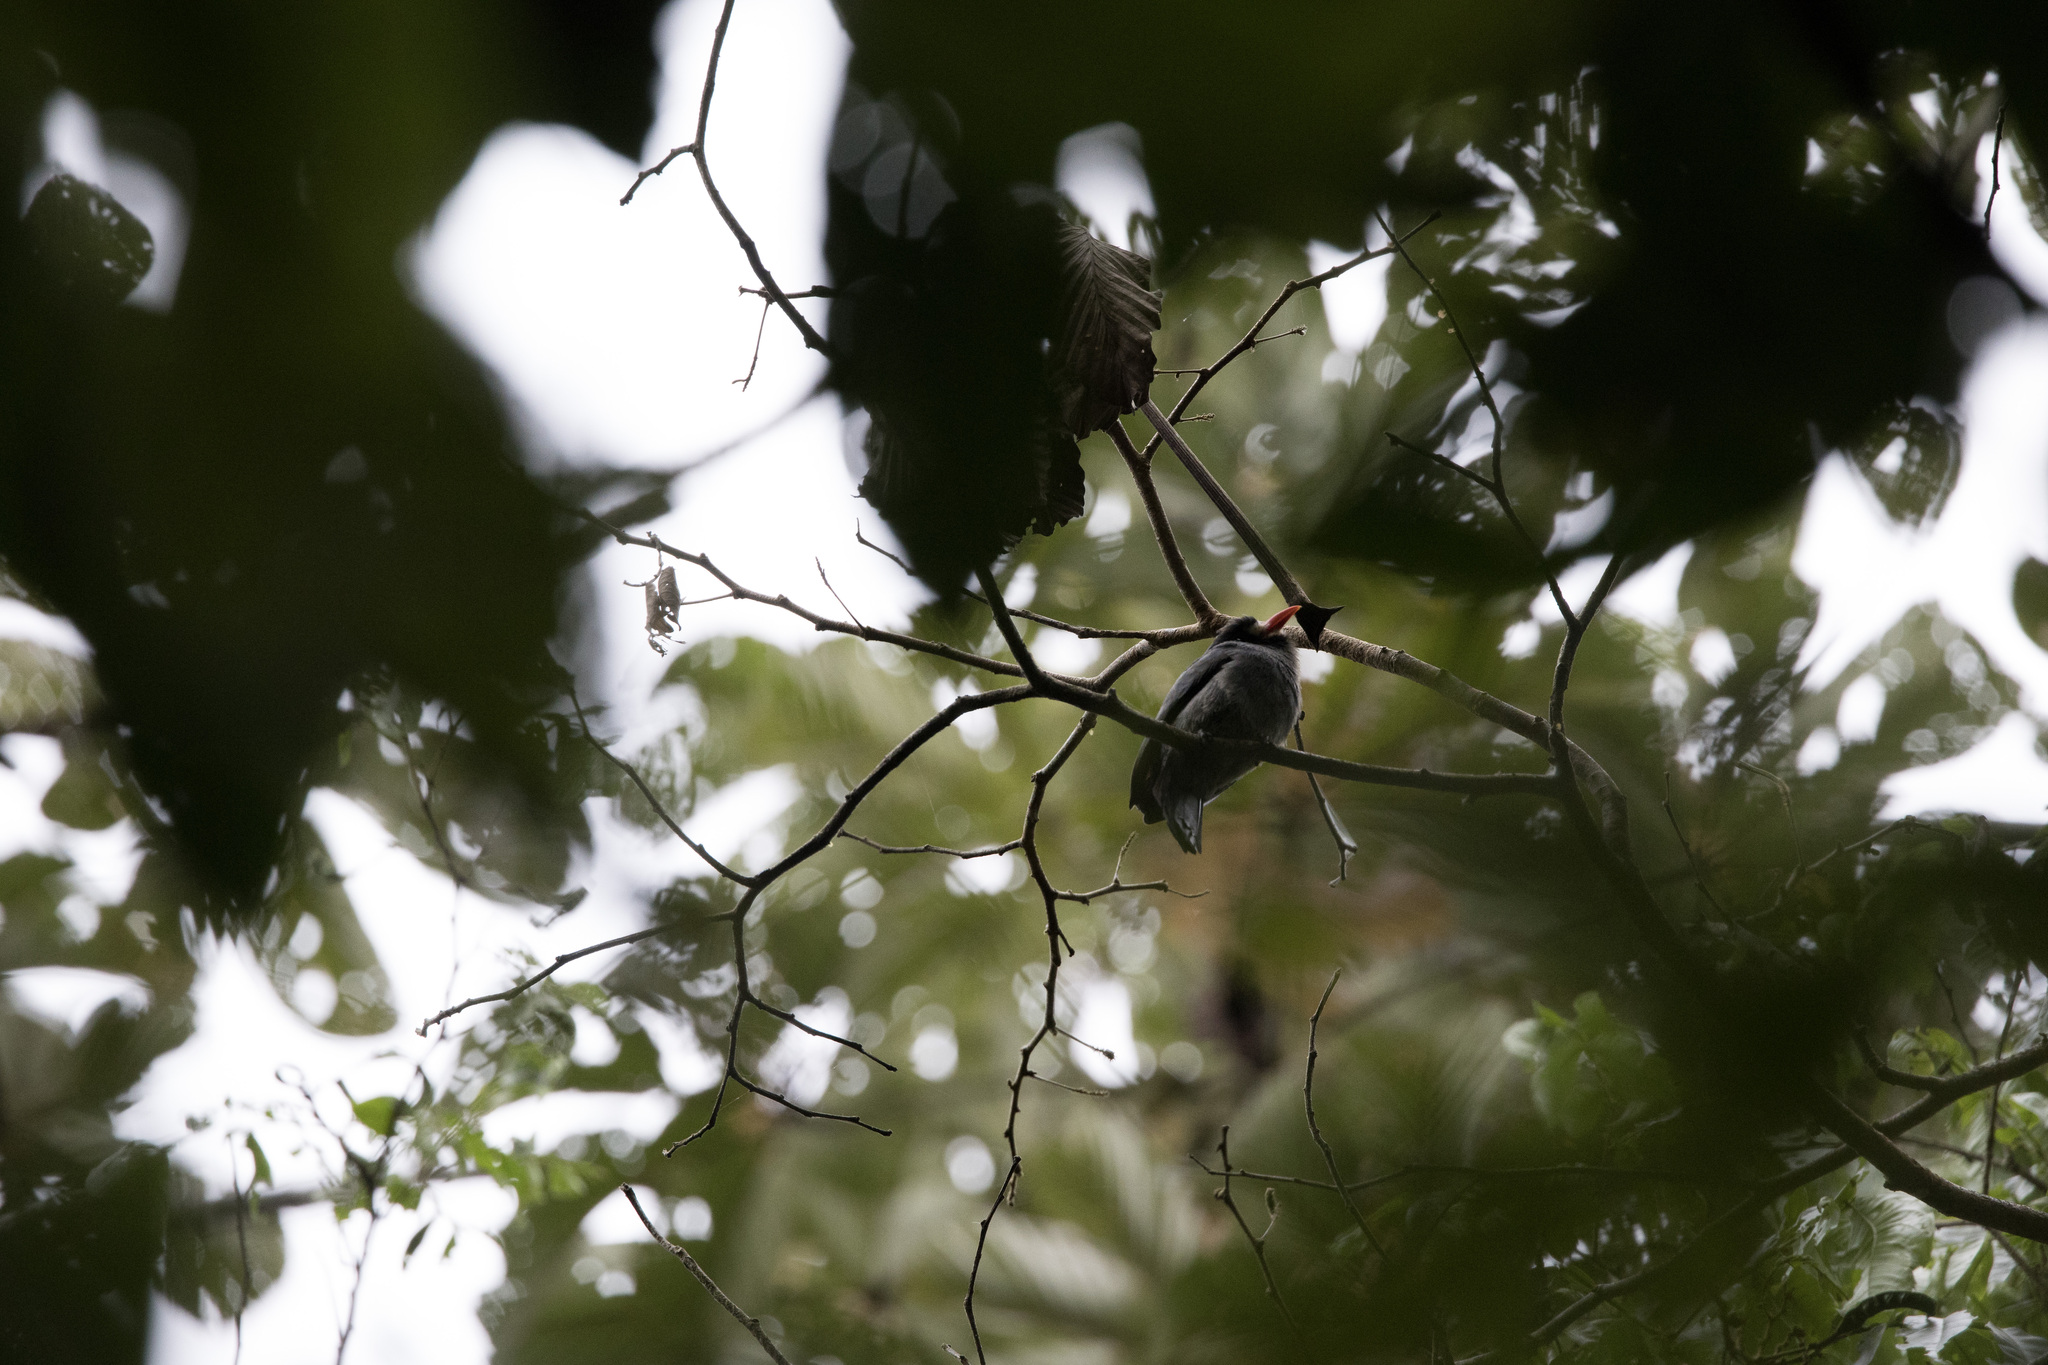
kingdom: Animalia
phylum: Chordata
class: Aves
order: Piciformes
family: Bucconidae
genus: Monasa
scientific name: Monasa morphoeus
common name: White-fronted nunbird
